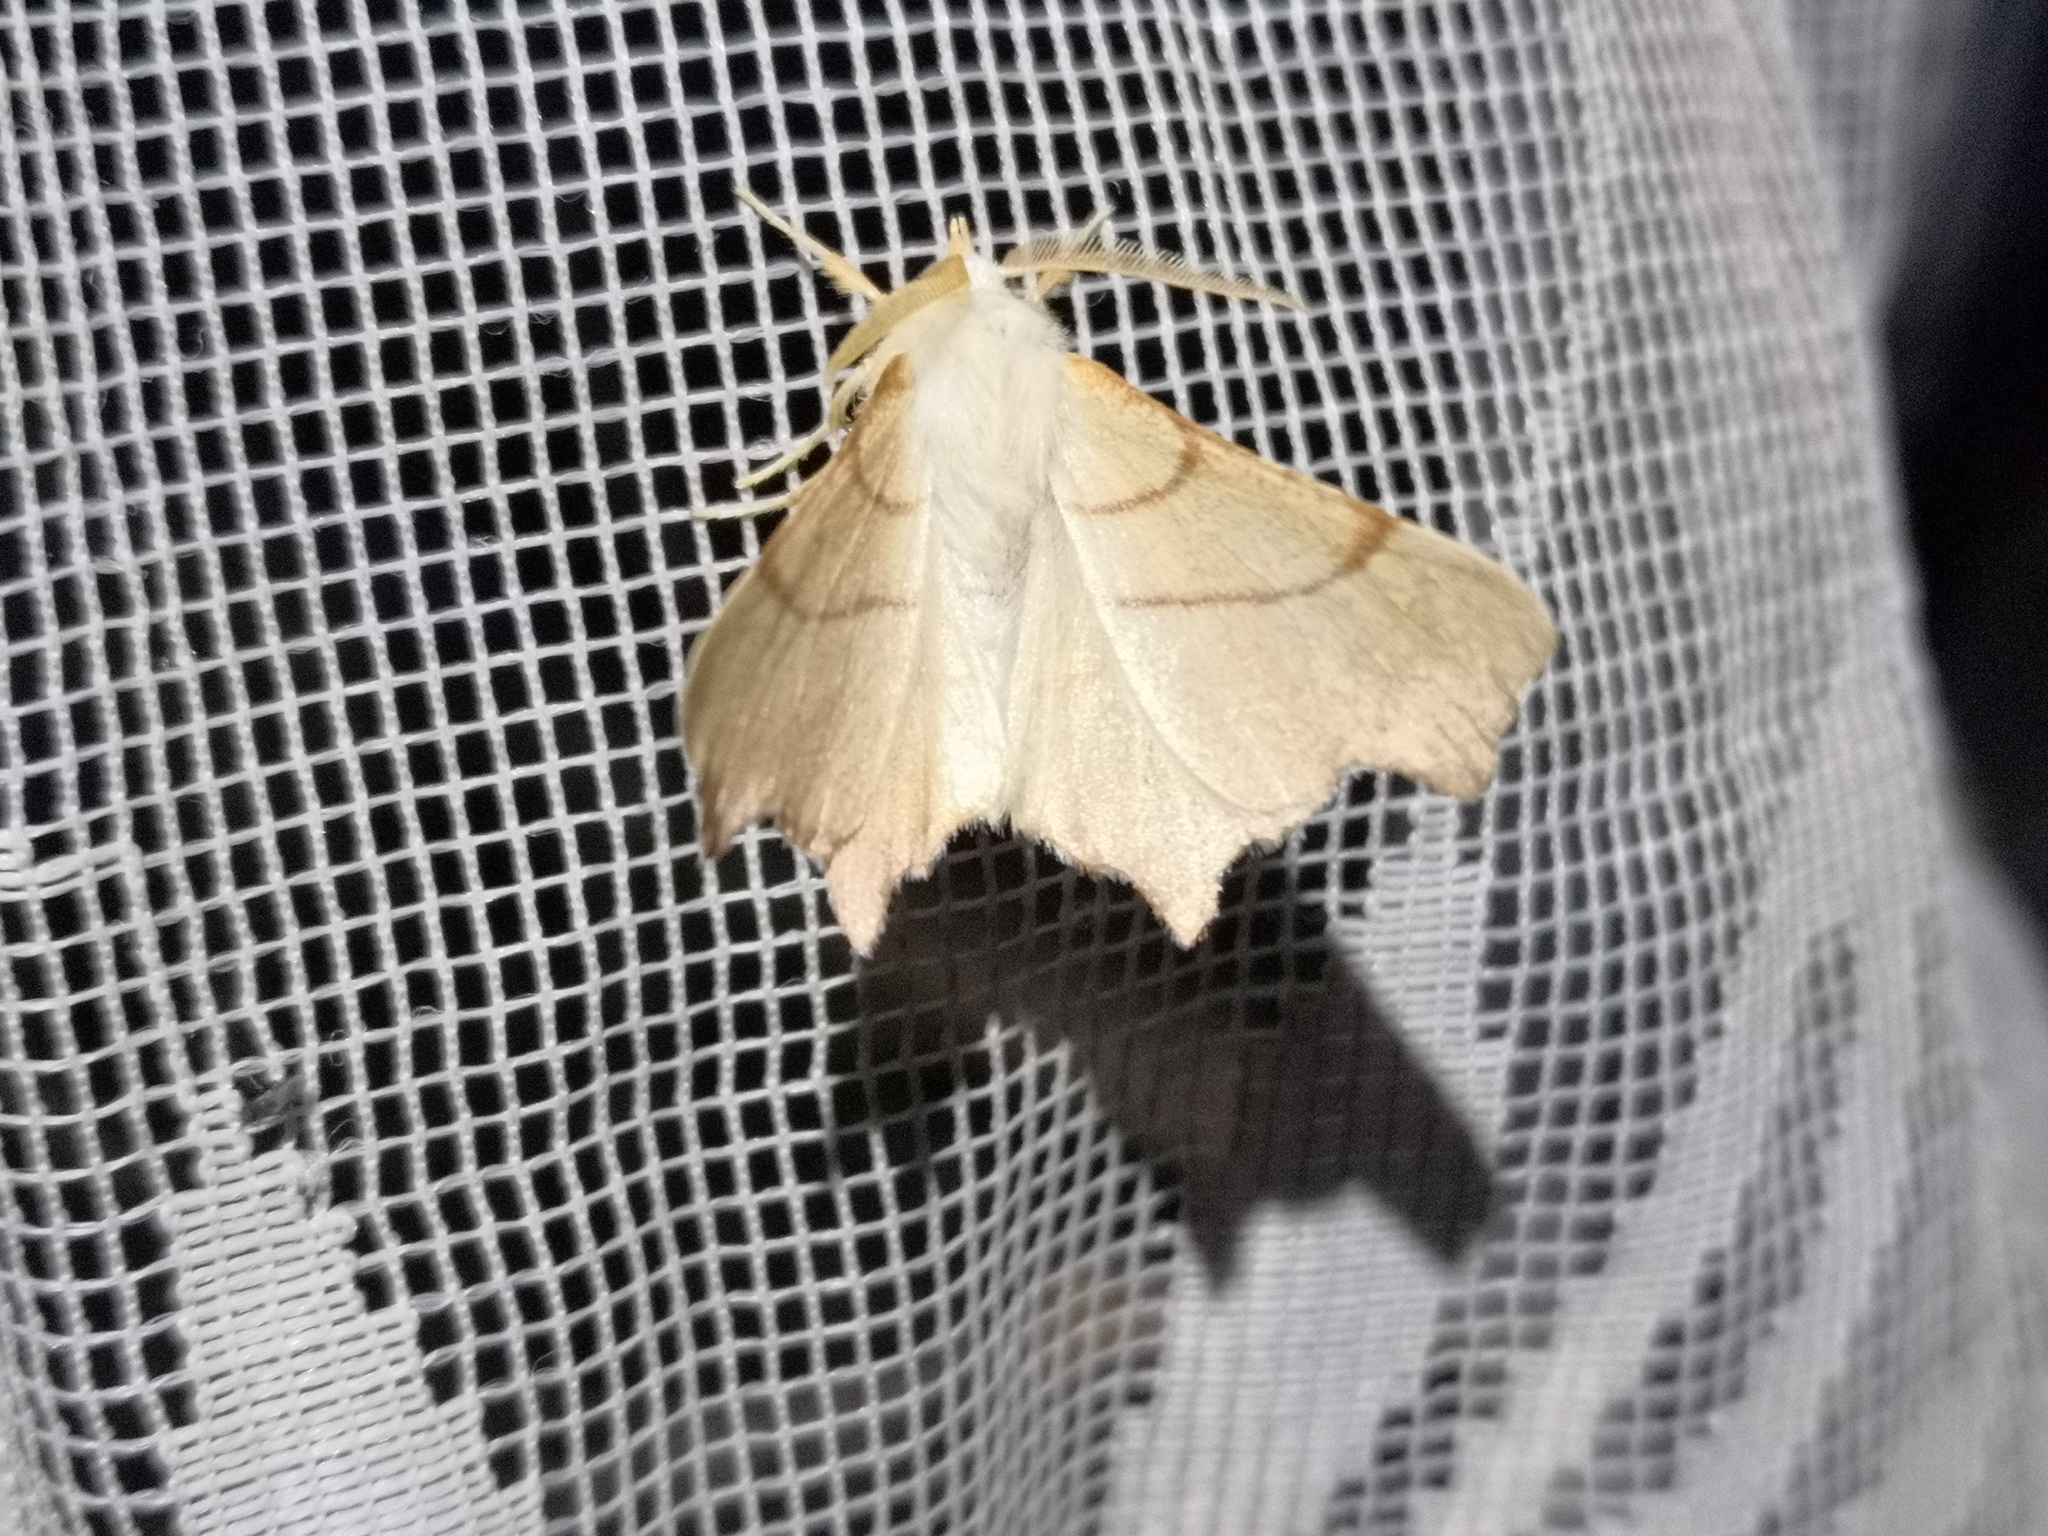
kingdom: Animalia
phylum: Arthropoda
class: Insecta
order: Lepidoptera
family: Geometridae
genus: Ennomos
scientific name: Ennomos erosaria
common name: September thorn
